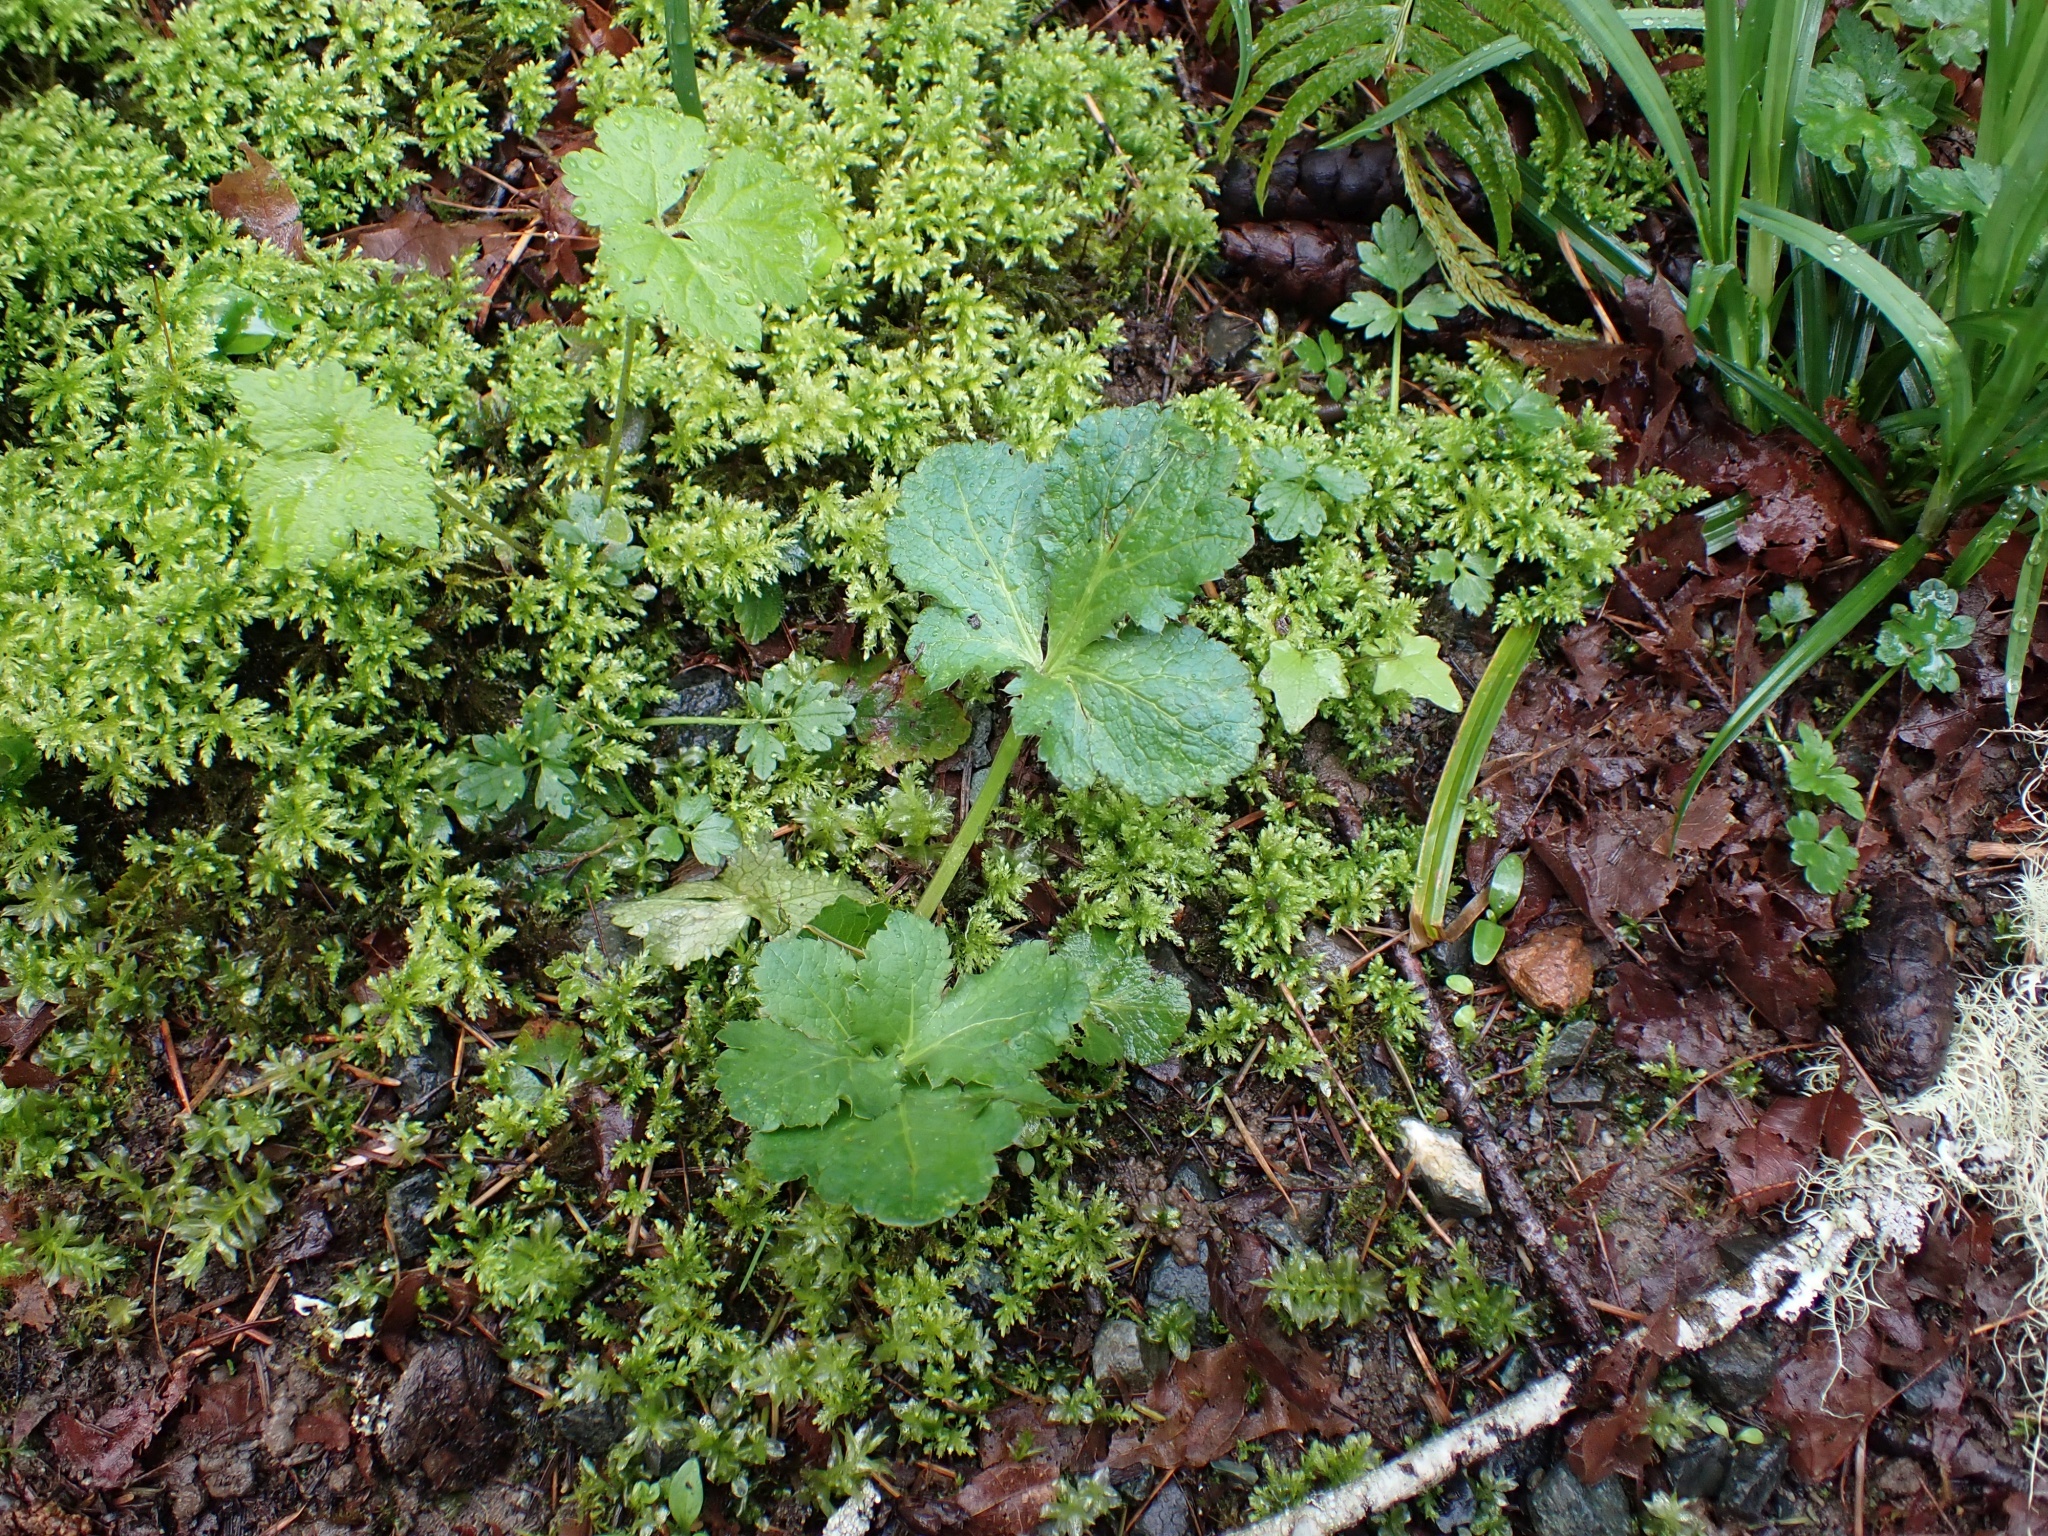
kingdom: Plantae
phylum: Tracheophyta
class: Magnoliopsida
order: Apiales
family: Apiaceae
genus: Sanicula
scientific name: Sanicula crassicaulis
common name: Western snakeroot
